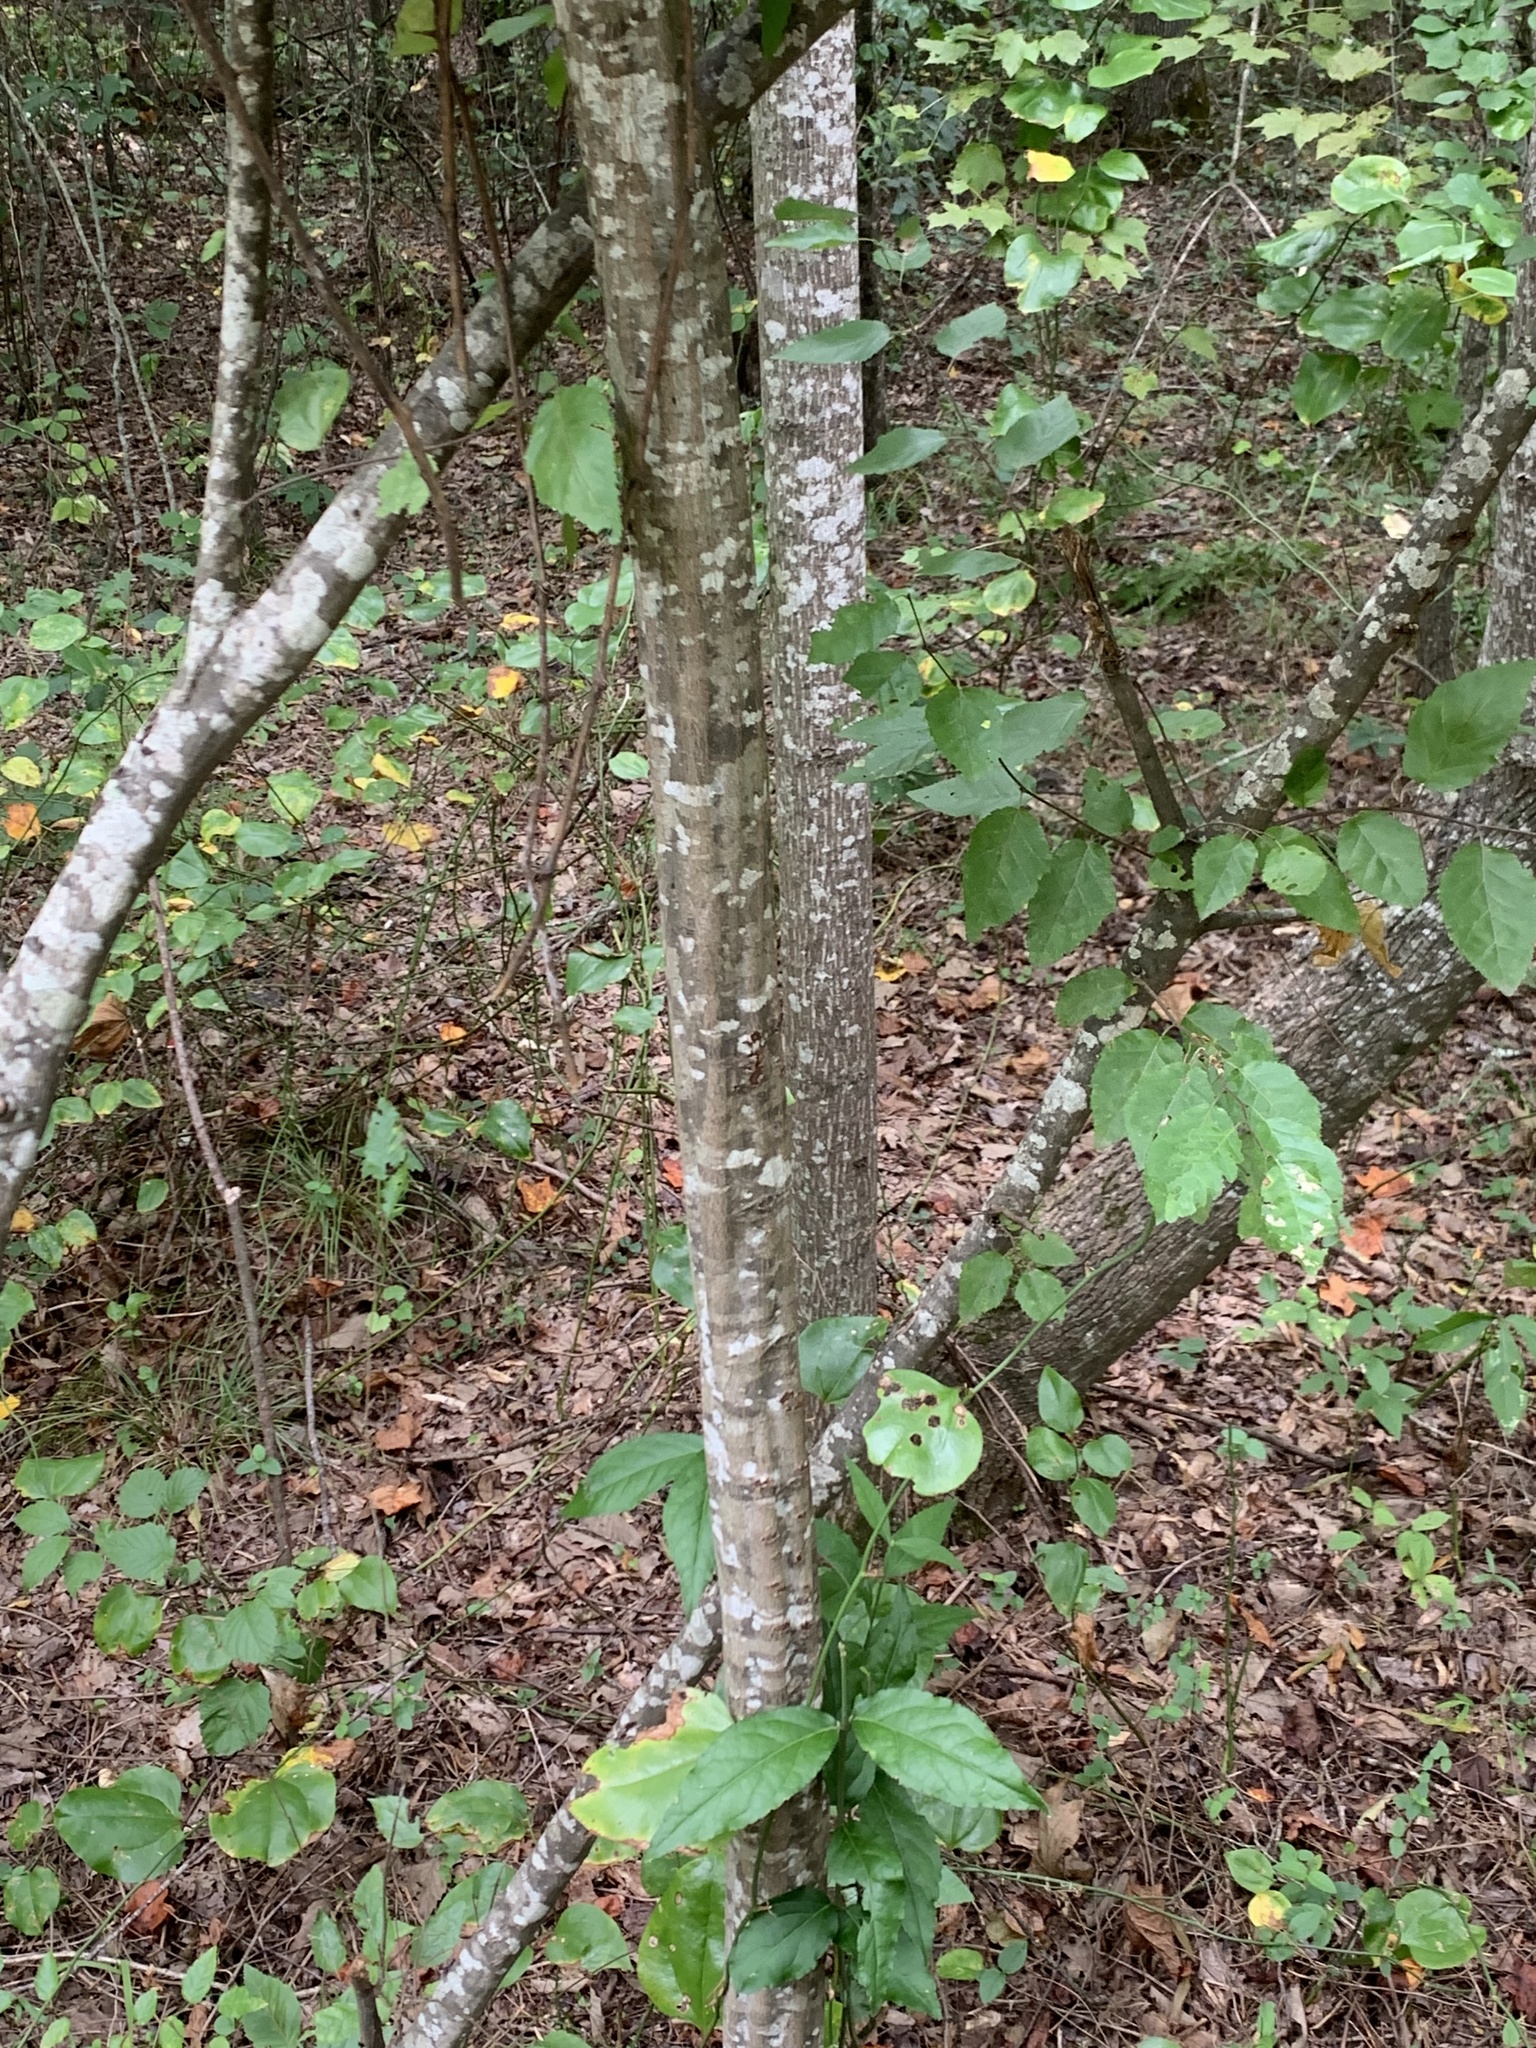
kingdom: Plantae
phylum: Tracheophyta
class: Magnoliopsida
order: Fagales
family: Betulaceae
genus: Carpinus
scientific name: Carpinus caroliniana
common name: American hornbeam
